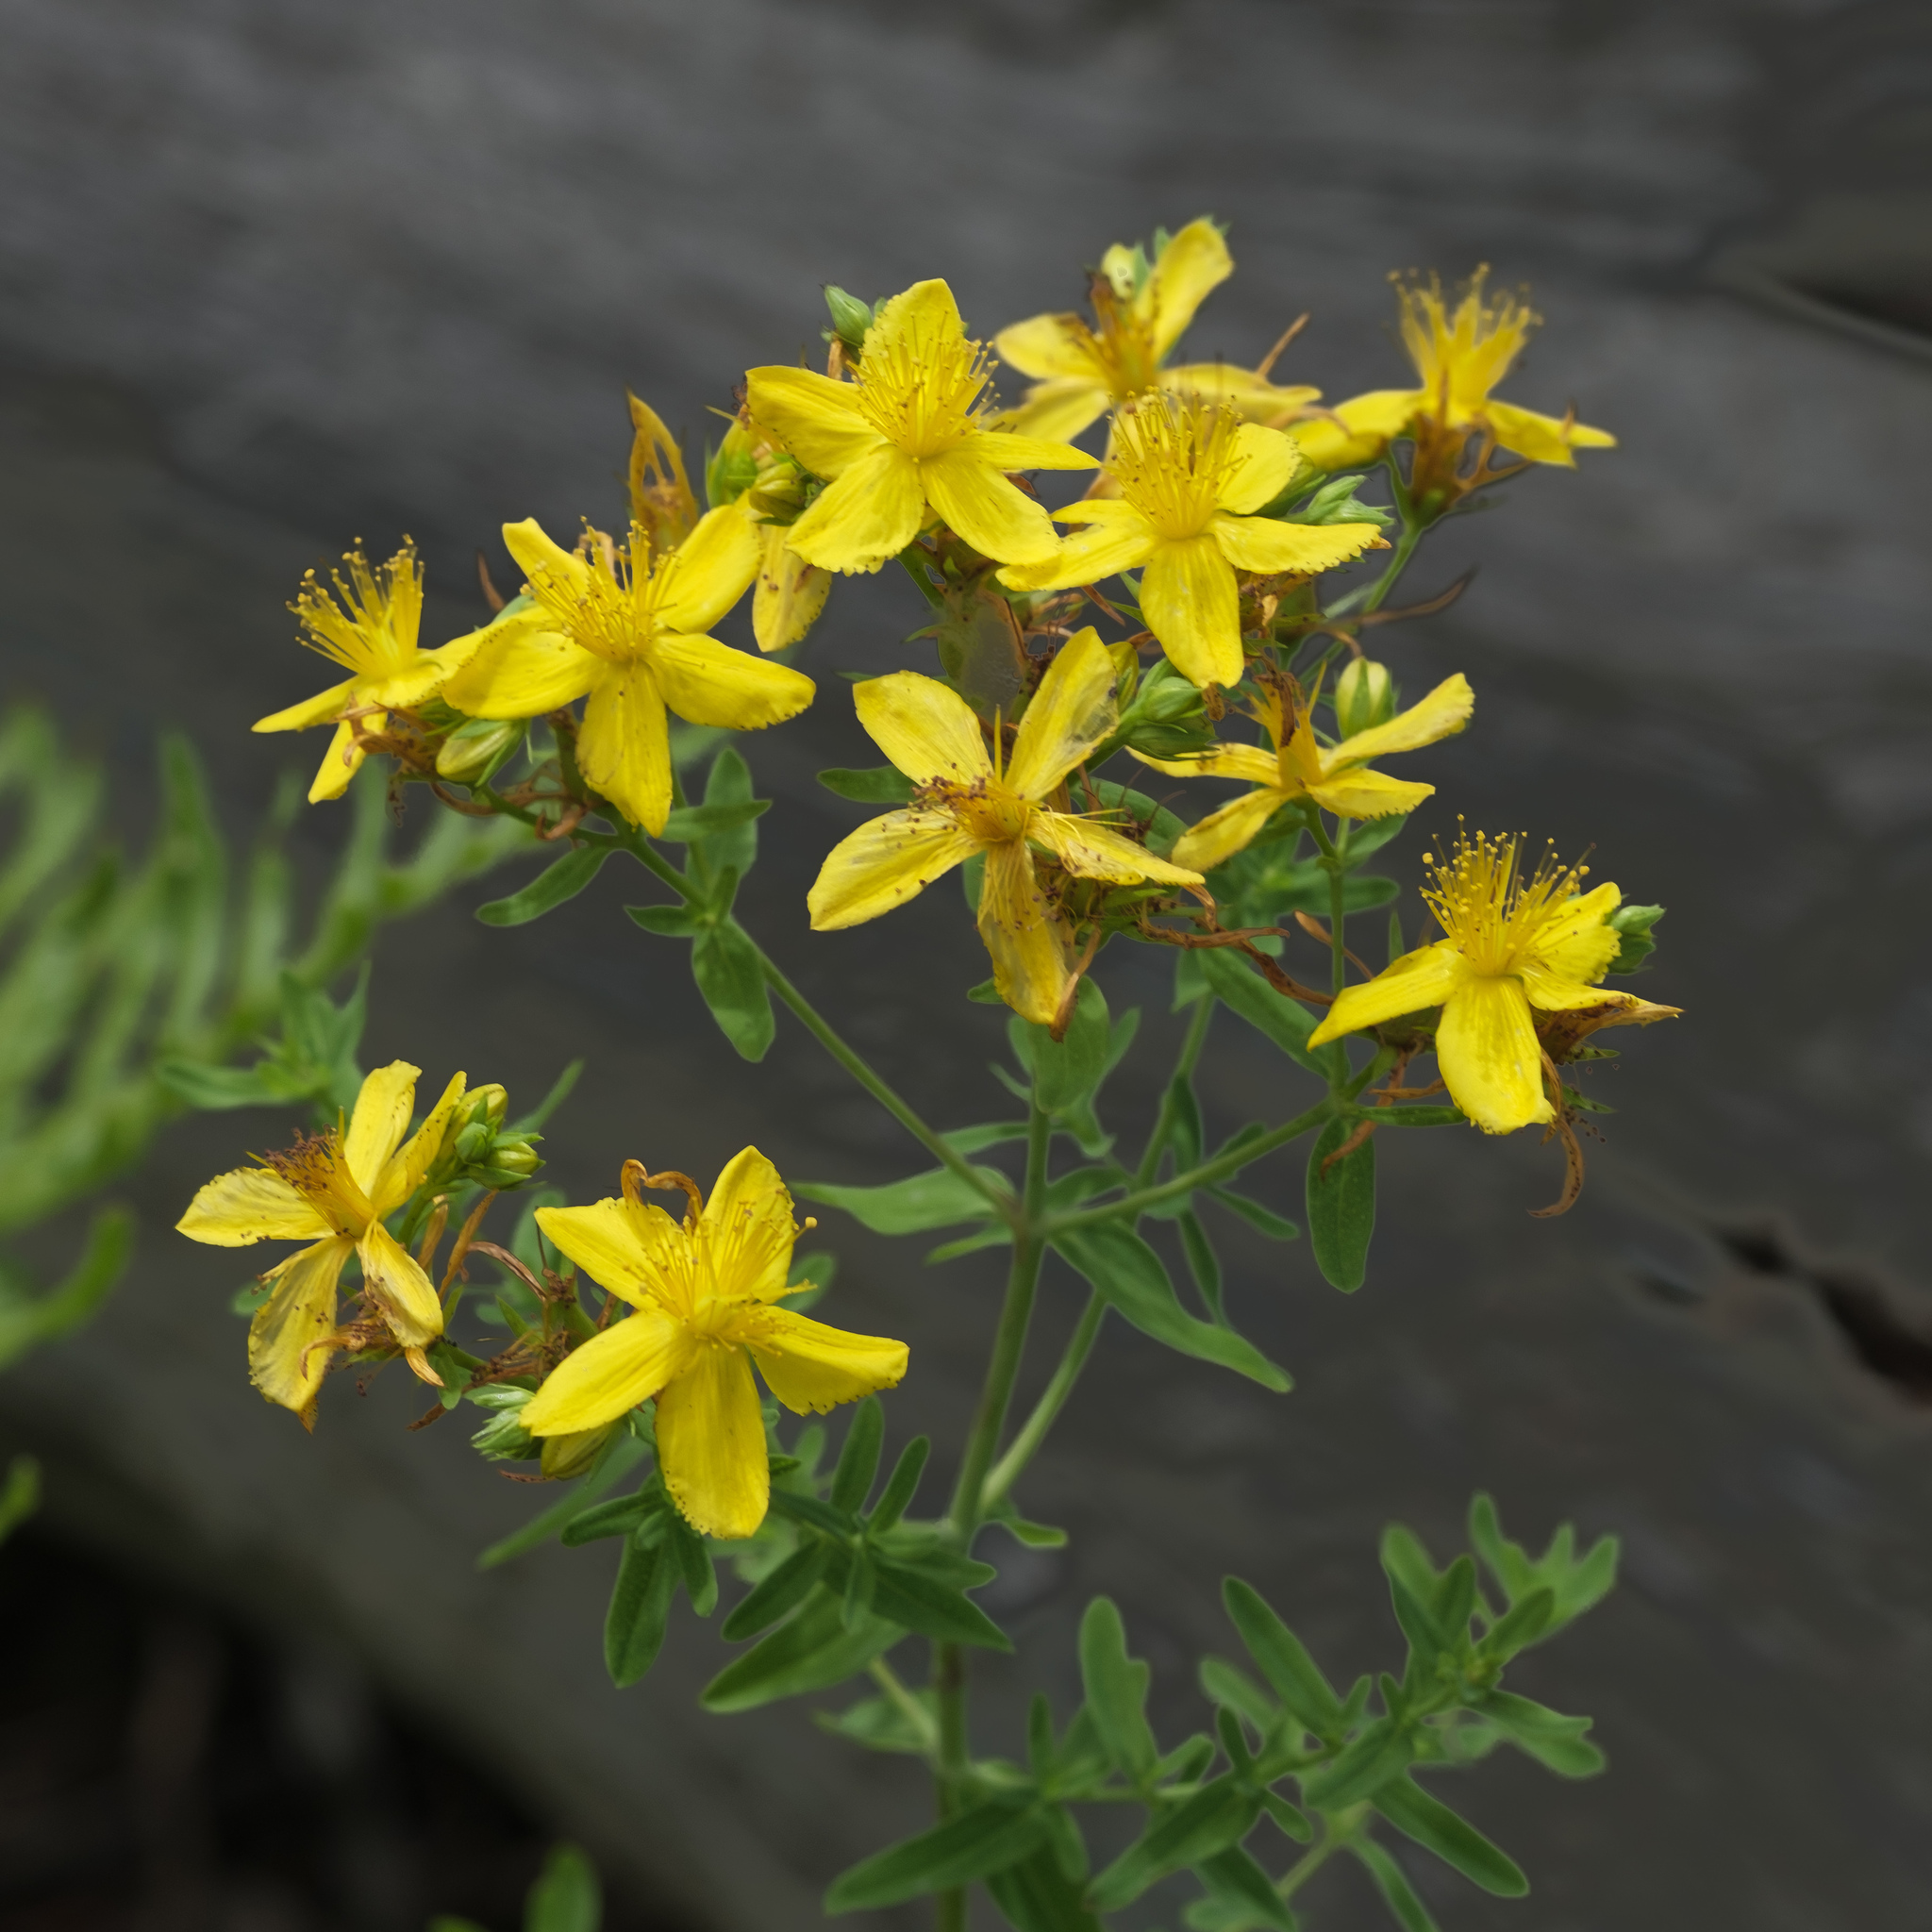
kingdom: Plantae
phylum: Tracheophyta
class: Magnoliopsida
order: Malpighiales
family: Hypericaceae
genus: Hypericum
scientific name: Hypericum perforatum
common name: Common st. johnswort
